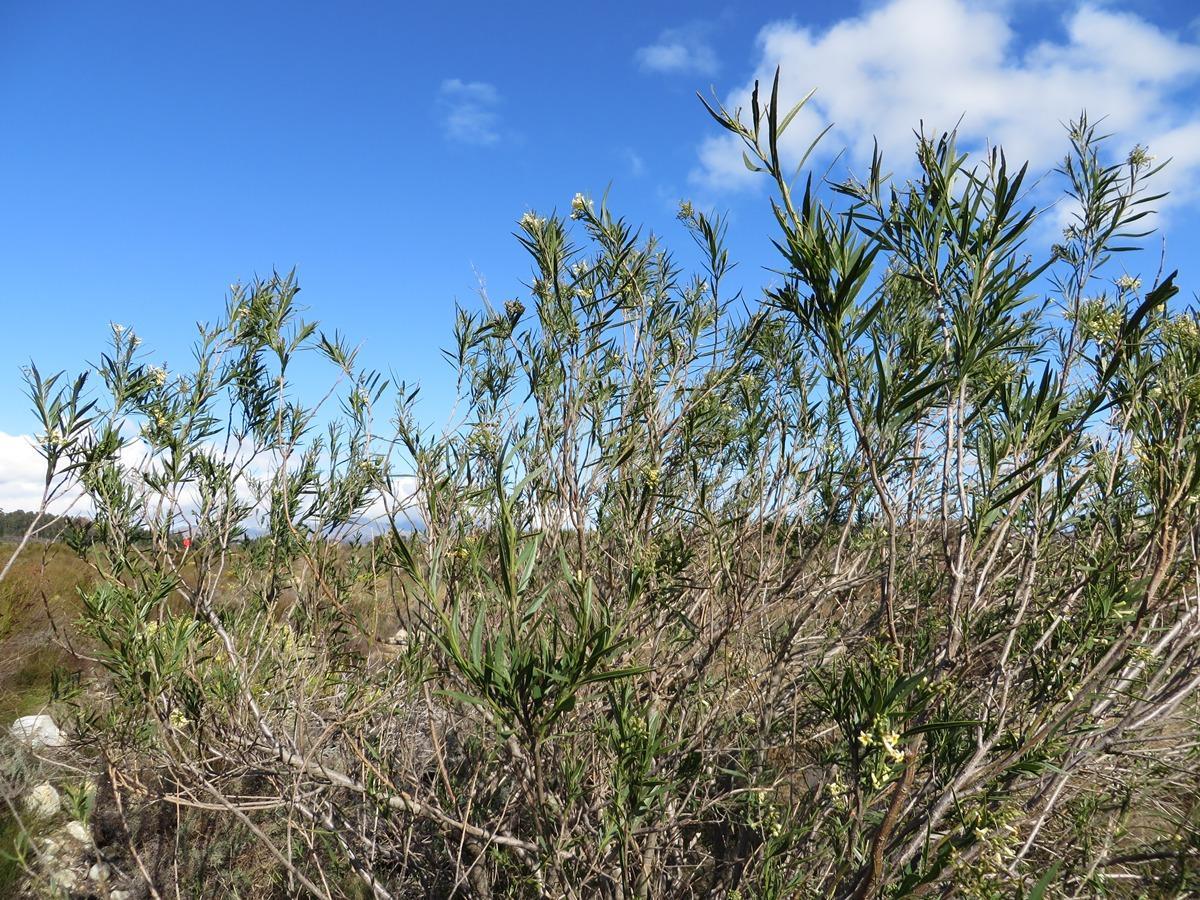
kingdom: Plantae
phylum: Tracheophyta
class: Magnoliopsida
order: Lamiales
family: Scrophulariaceae
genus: Freylinia
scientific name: Freylinia lanceolata
